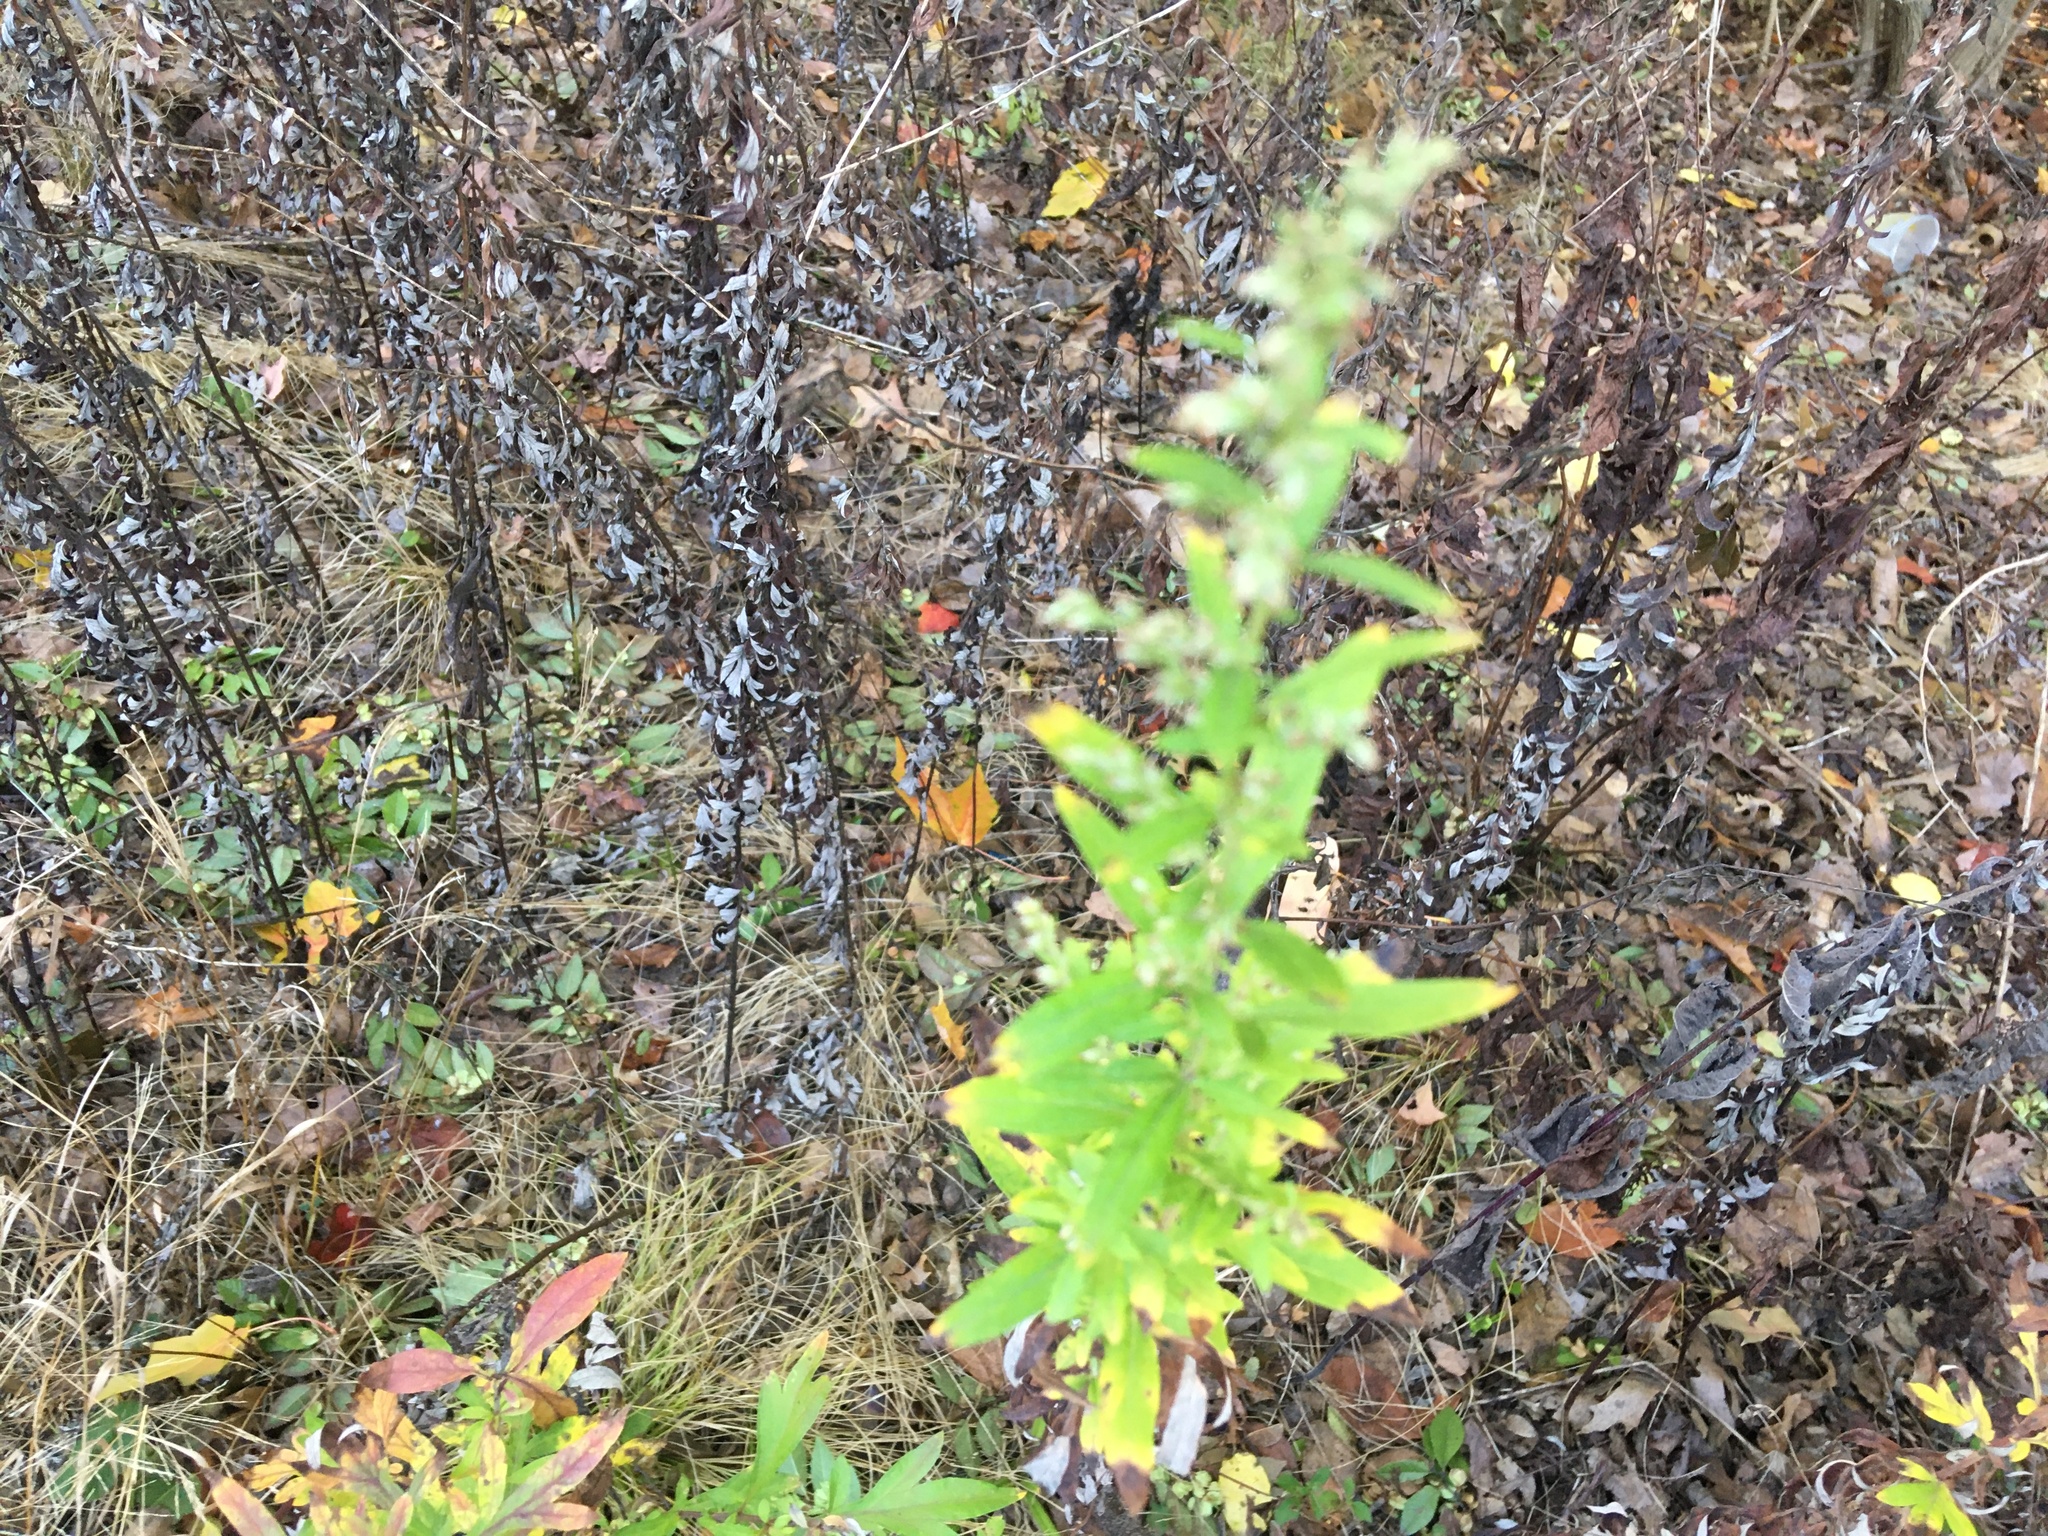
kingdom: Plantae
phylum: Tracheophyta
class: Magnoliopsida
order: Asterales
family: Asteraceae
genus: Artemisia
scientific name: Artemisia vulgaris
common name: Mugwort
